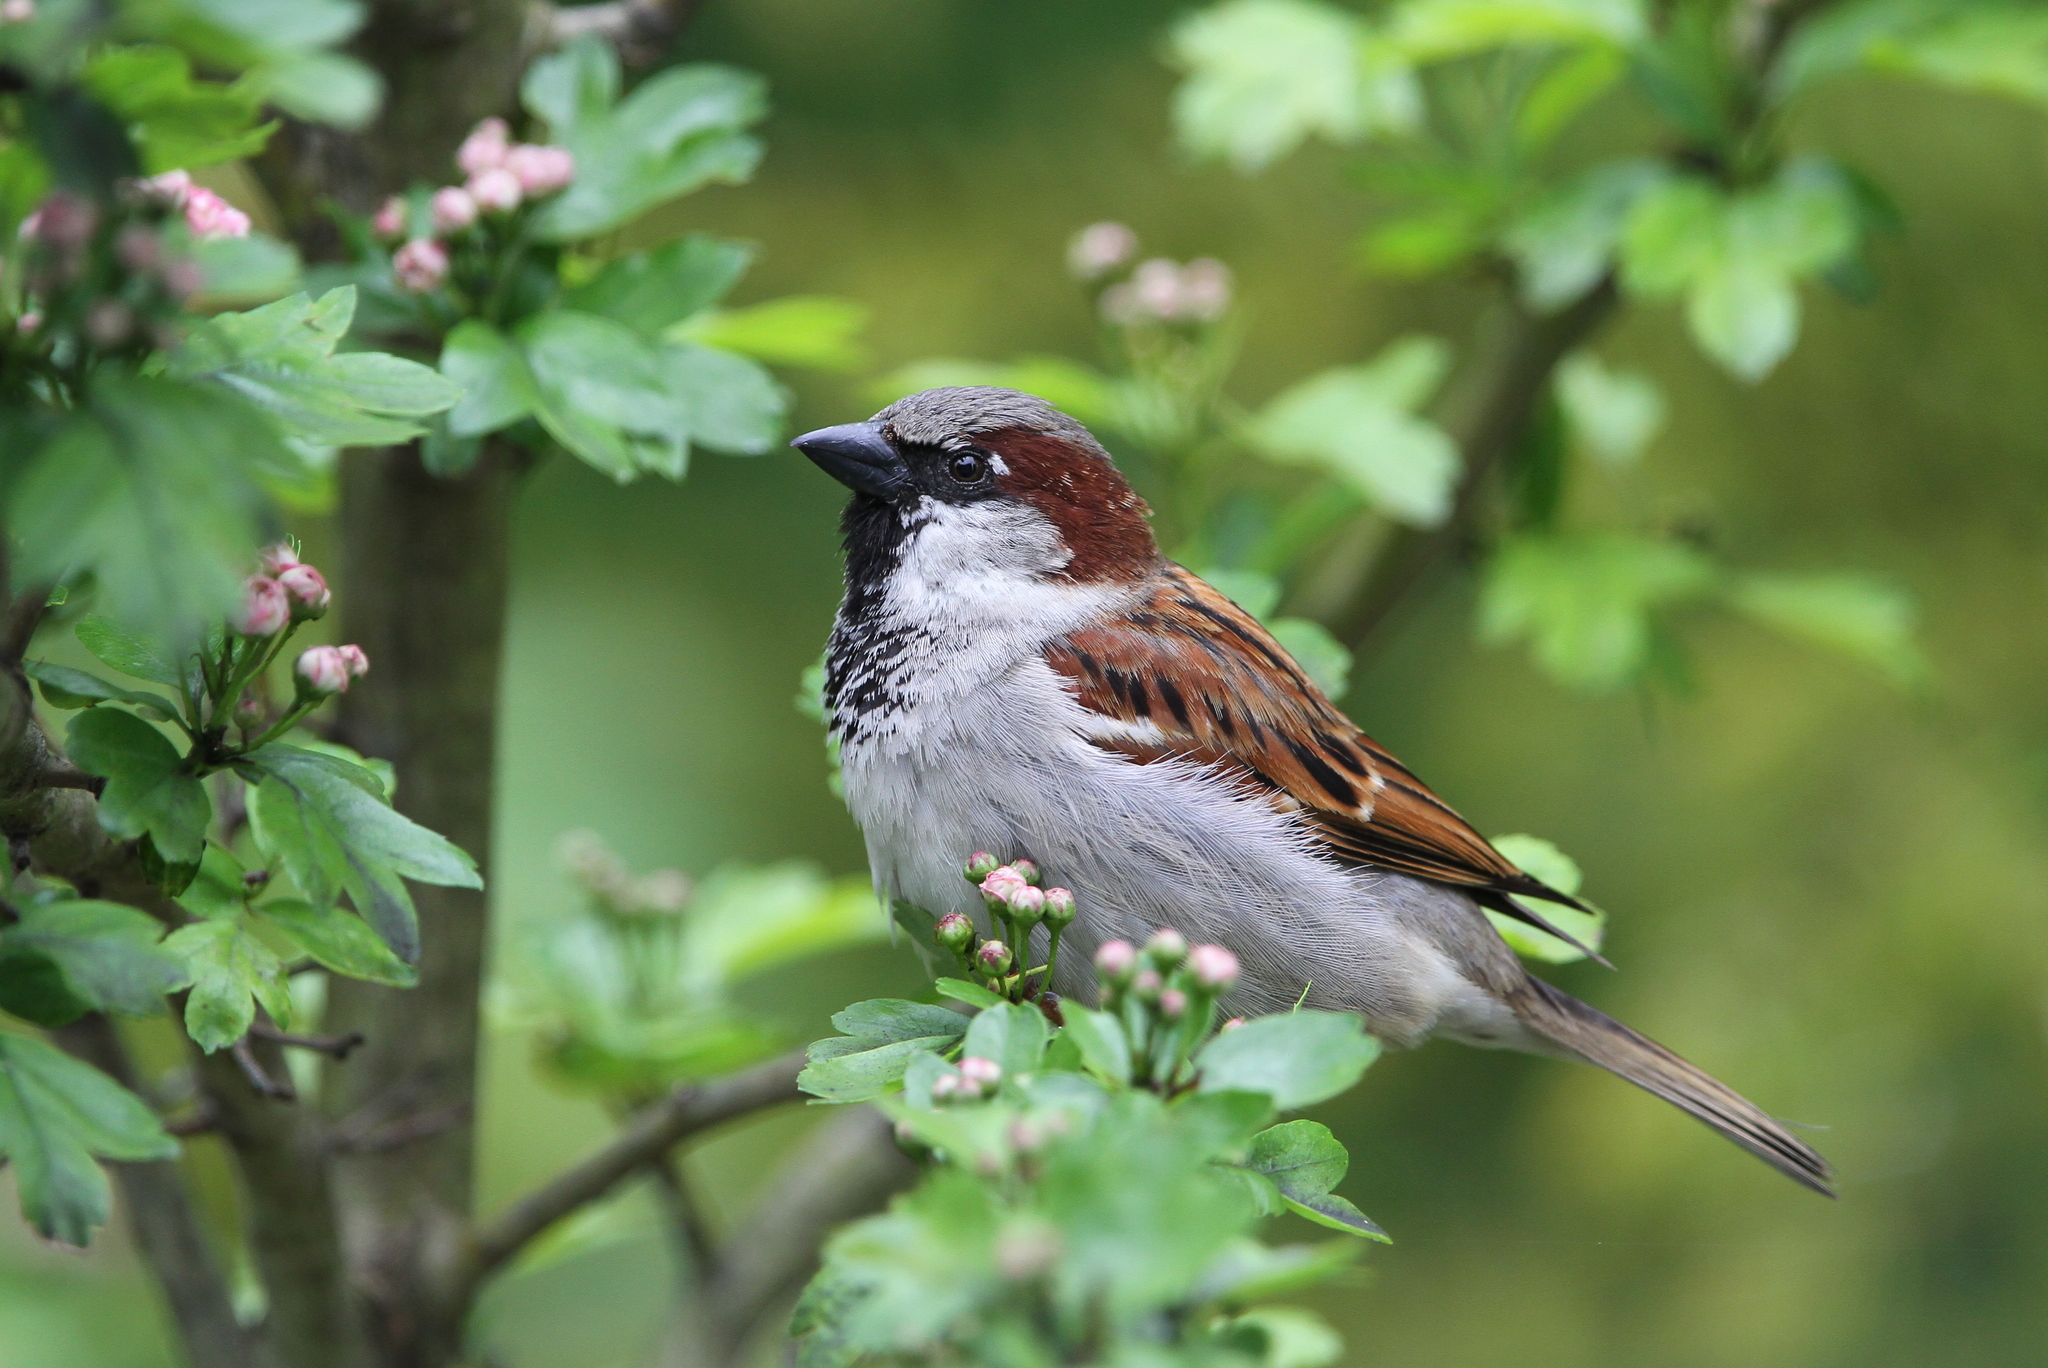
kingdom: Animalia
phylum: Chordata
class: Aves
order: Passeriformes
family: Passeridae
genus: Passer
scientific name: Passer domesticus
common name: House sparrow
